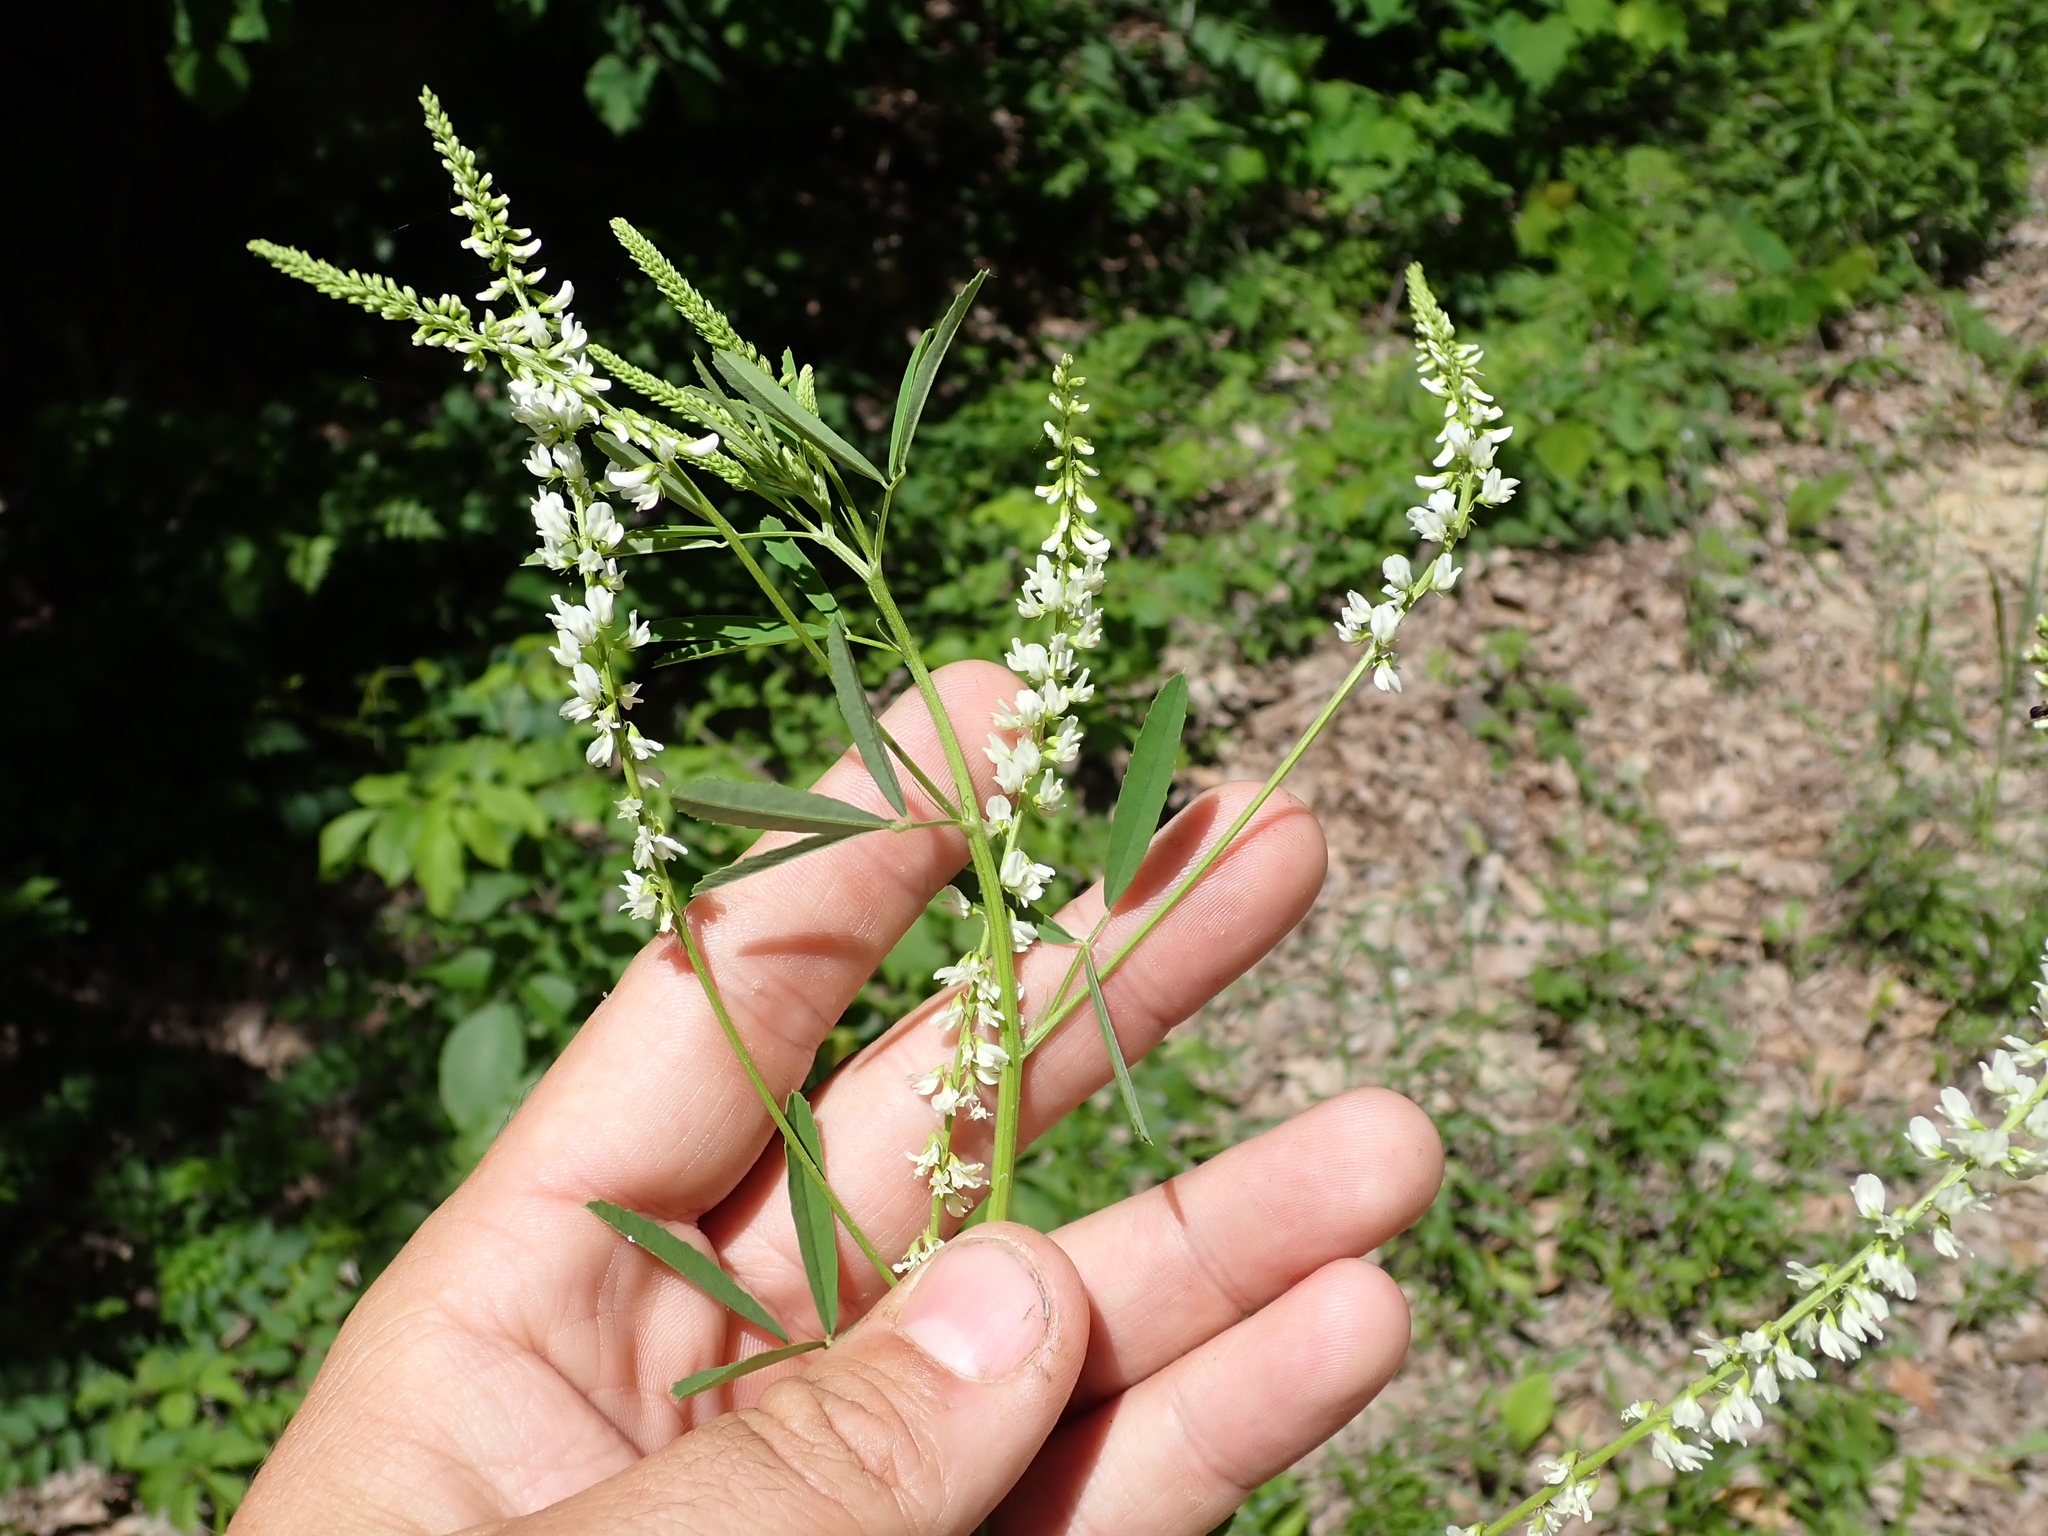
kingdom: Plantae
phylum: Tracheophyta
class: Magnoliopsida
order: Fabales
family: Fabaceae
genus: Melilotus
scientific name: Melilotus albus
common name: White melilot
